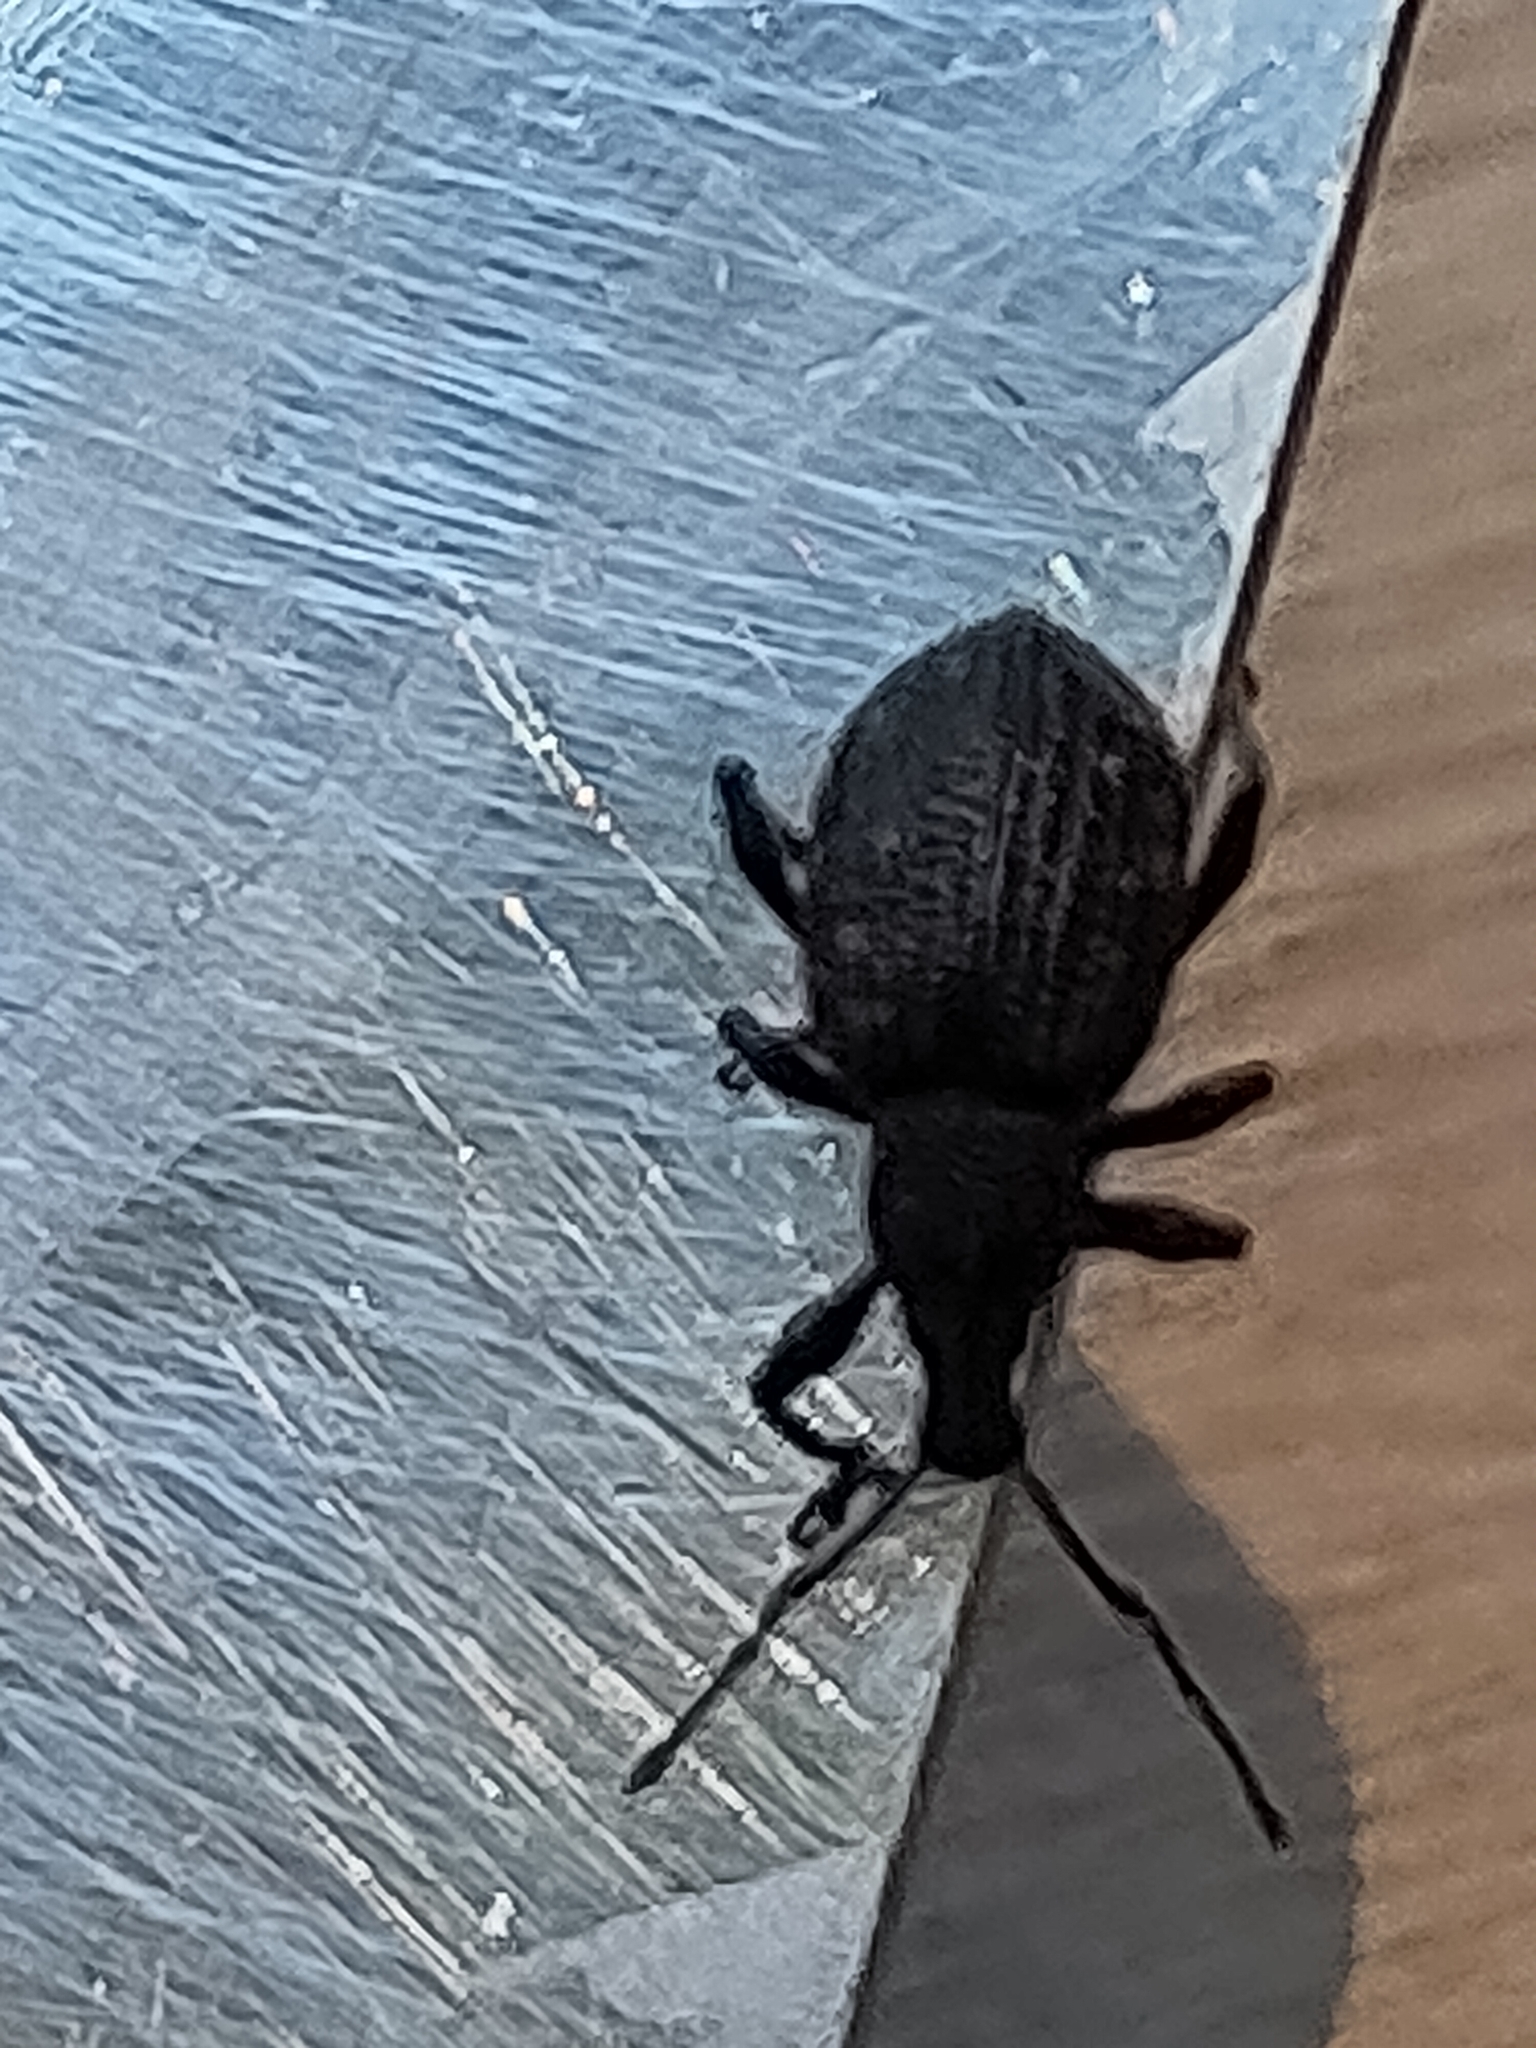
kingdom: Animalia
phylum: Arthropoda
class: Insecta
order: Coleoptera
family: Curculionidae
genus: Otiorhynchus
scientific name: Otiorhynchus sulcatus
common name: Black vine weevil
